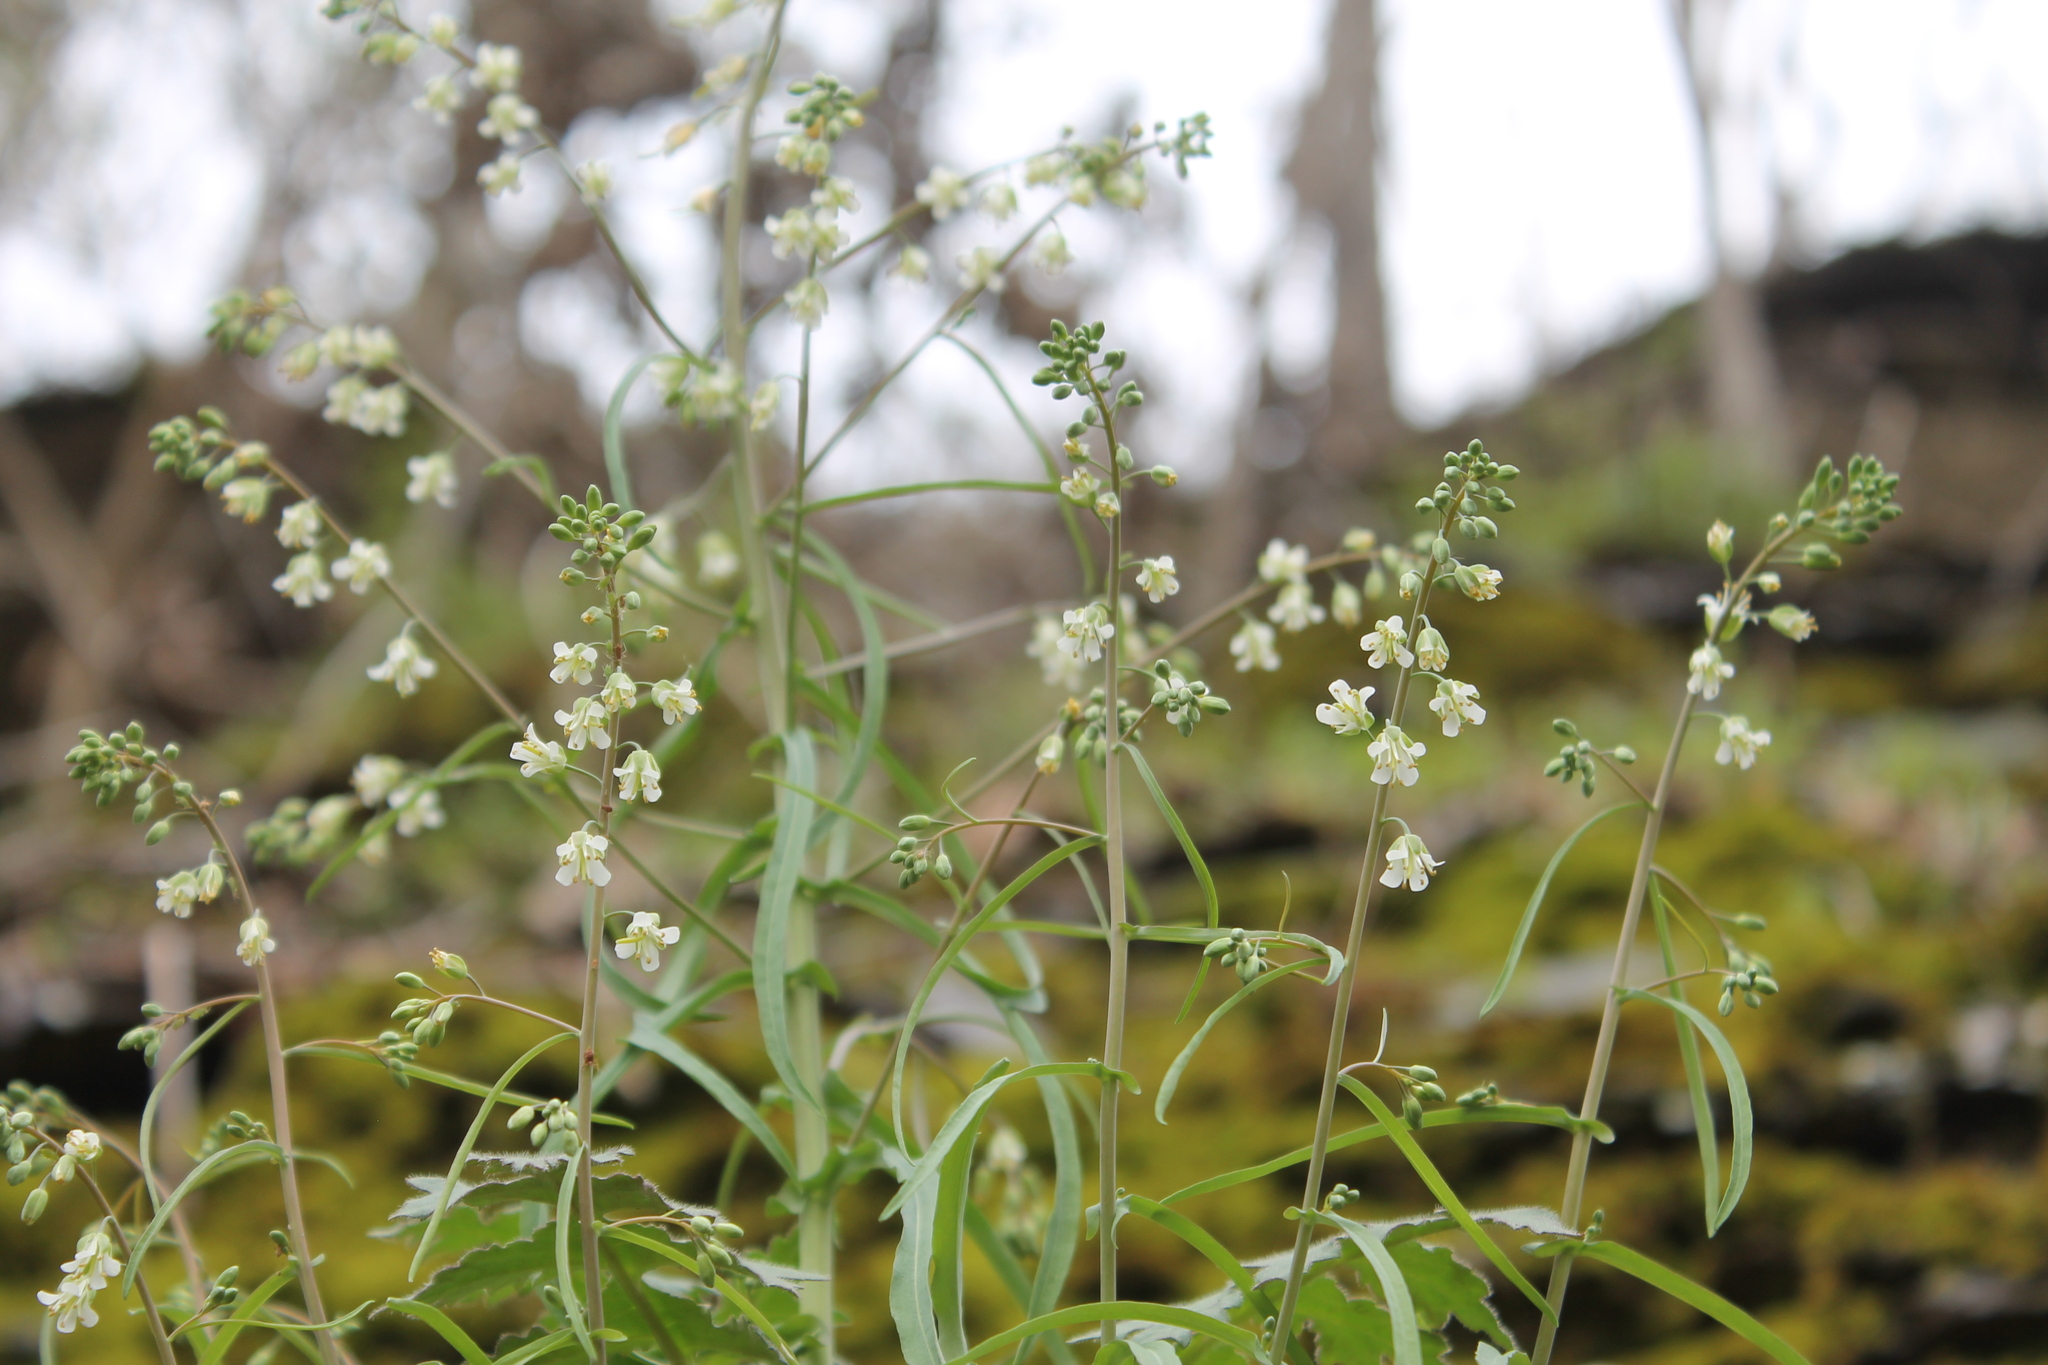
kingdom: Plantae
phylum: Tracheophyta
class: Magnoliopsida
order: Brassicales
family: Brassicaceae
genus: Borodinia
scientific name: Borodinia laevigata
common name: Smooth rockcress
